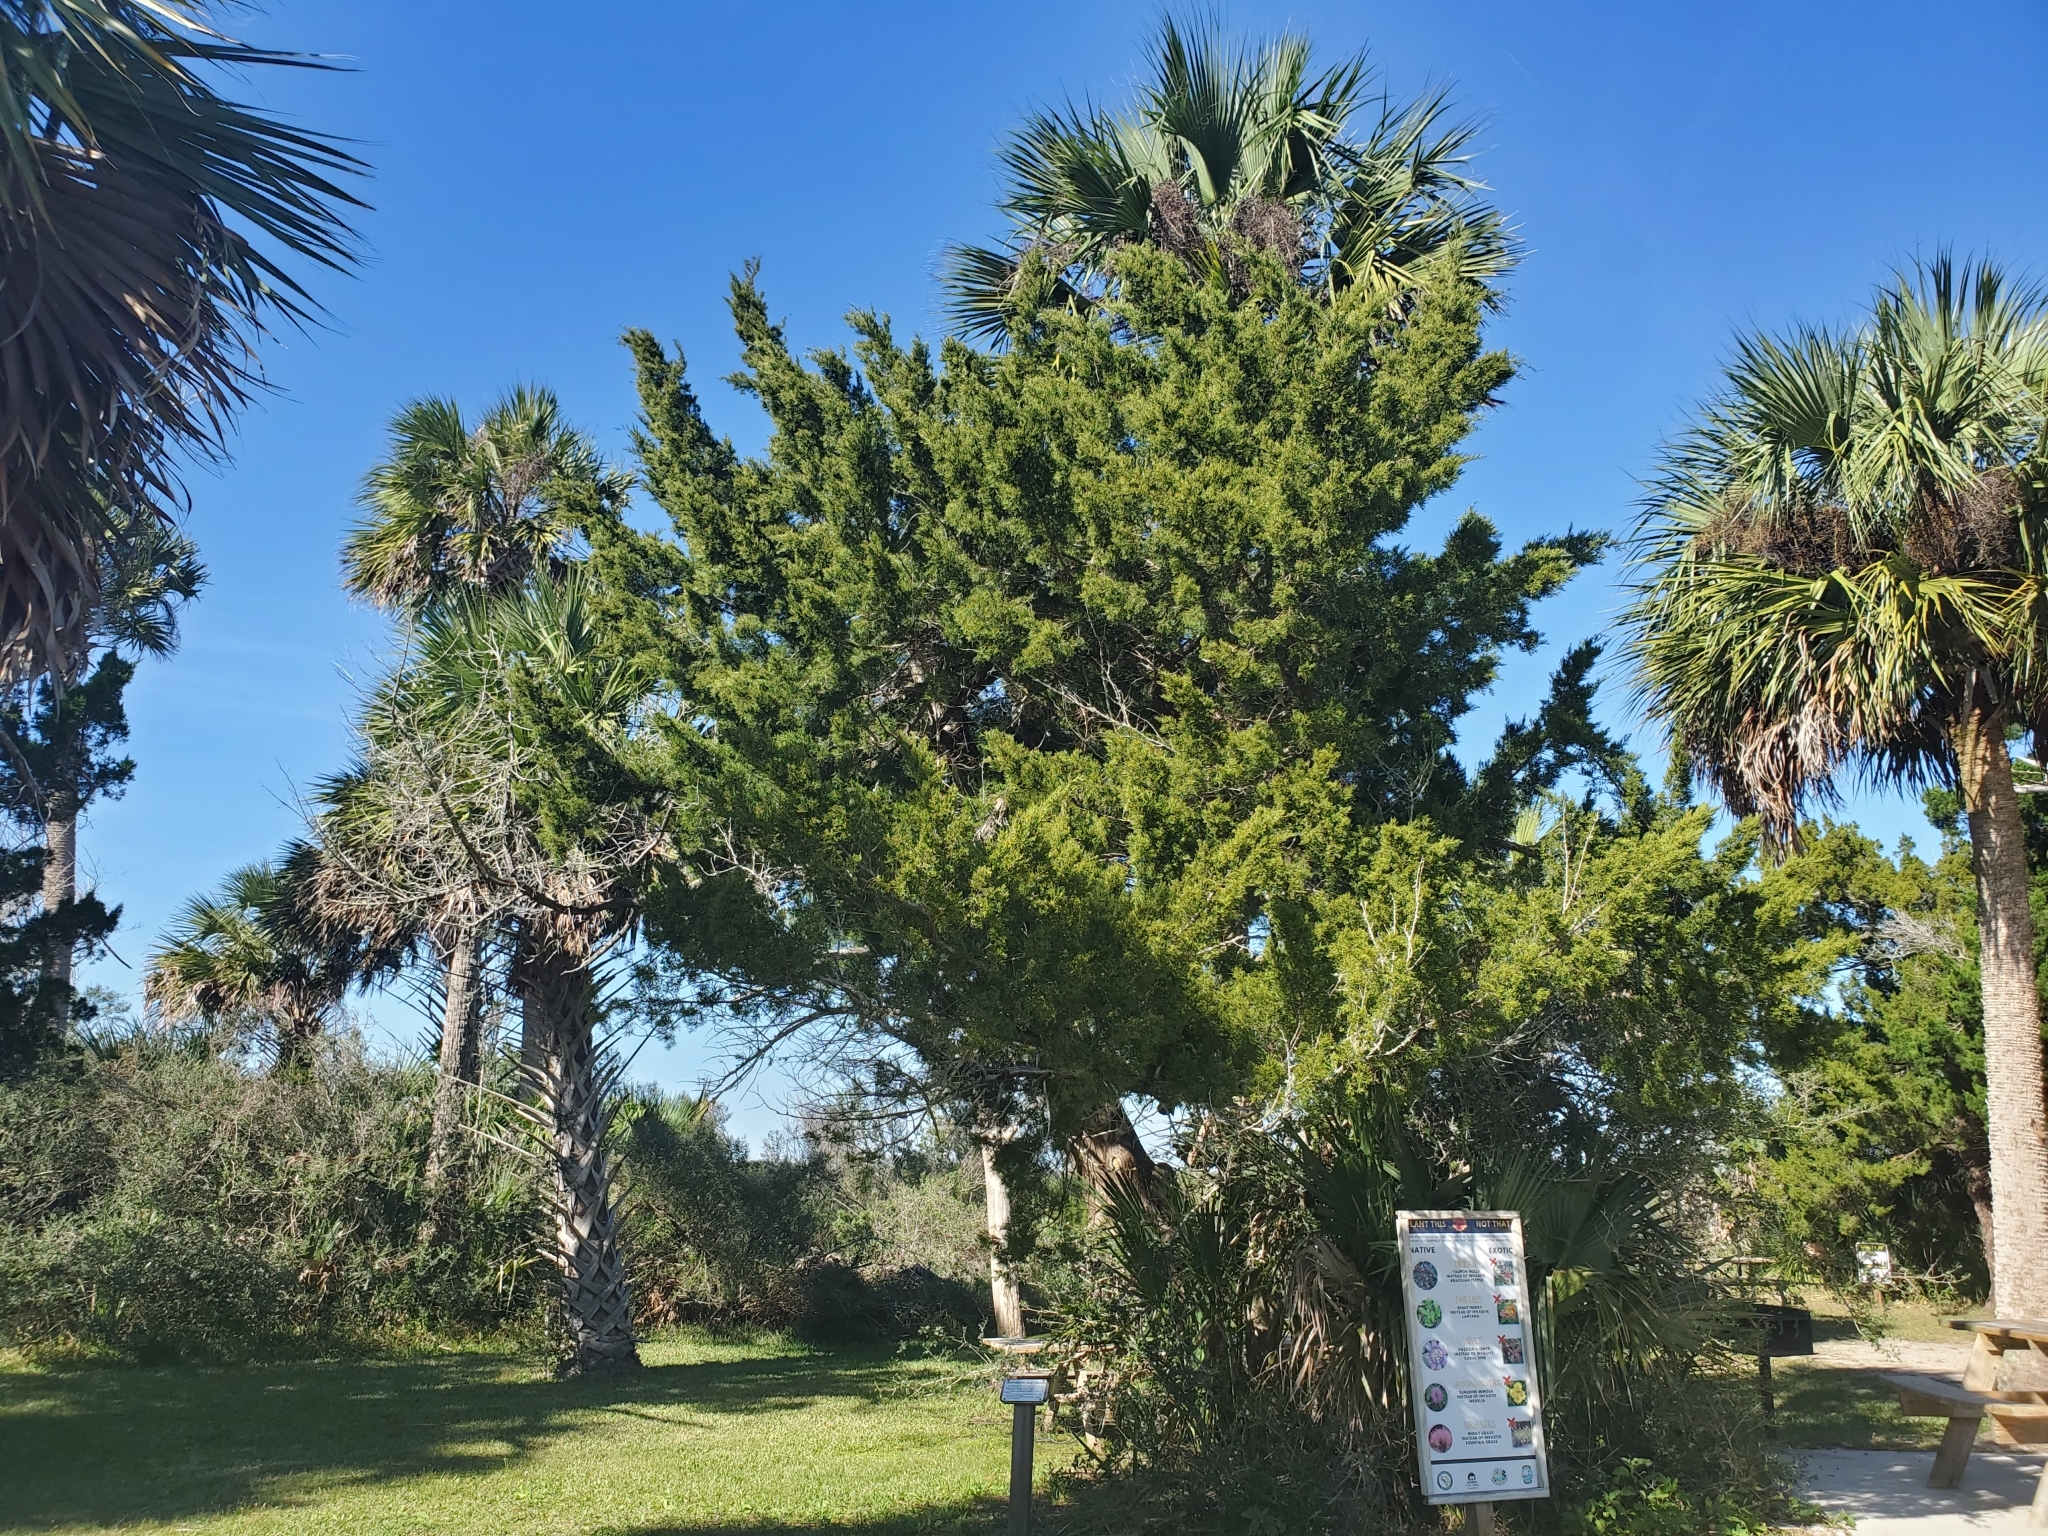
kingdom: Plantae
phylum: Tracheophyta
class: Pinopsida
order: Pinales
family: Cupressaceae
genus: Juniperus
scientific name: Juniperus virginiana
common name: Red juniper
